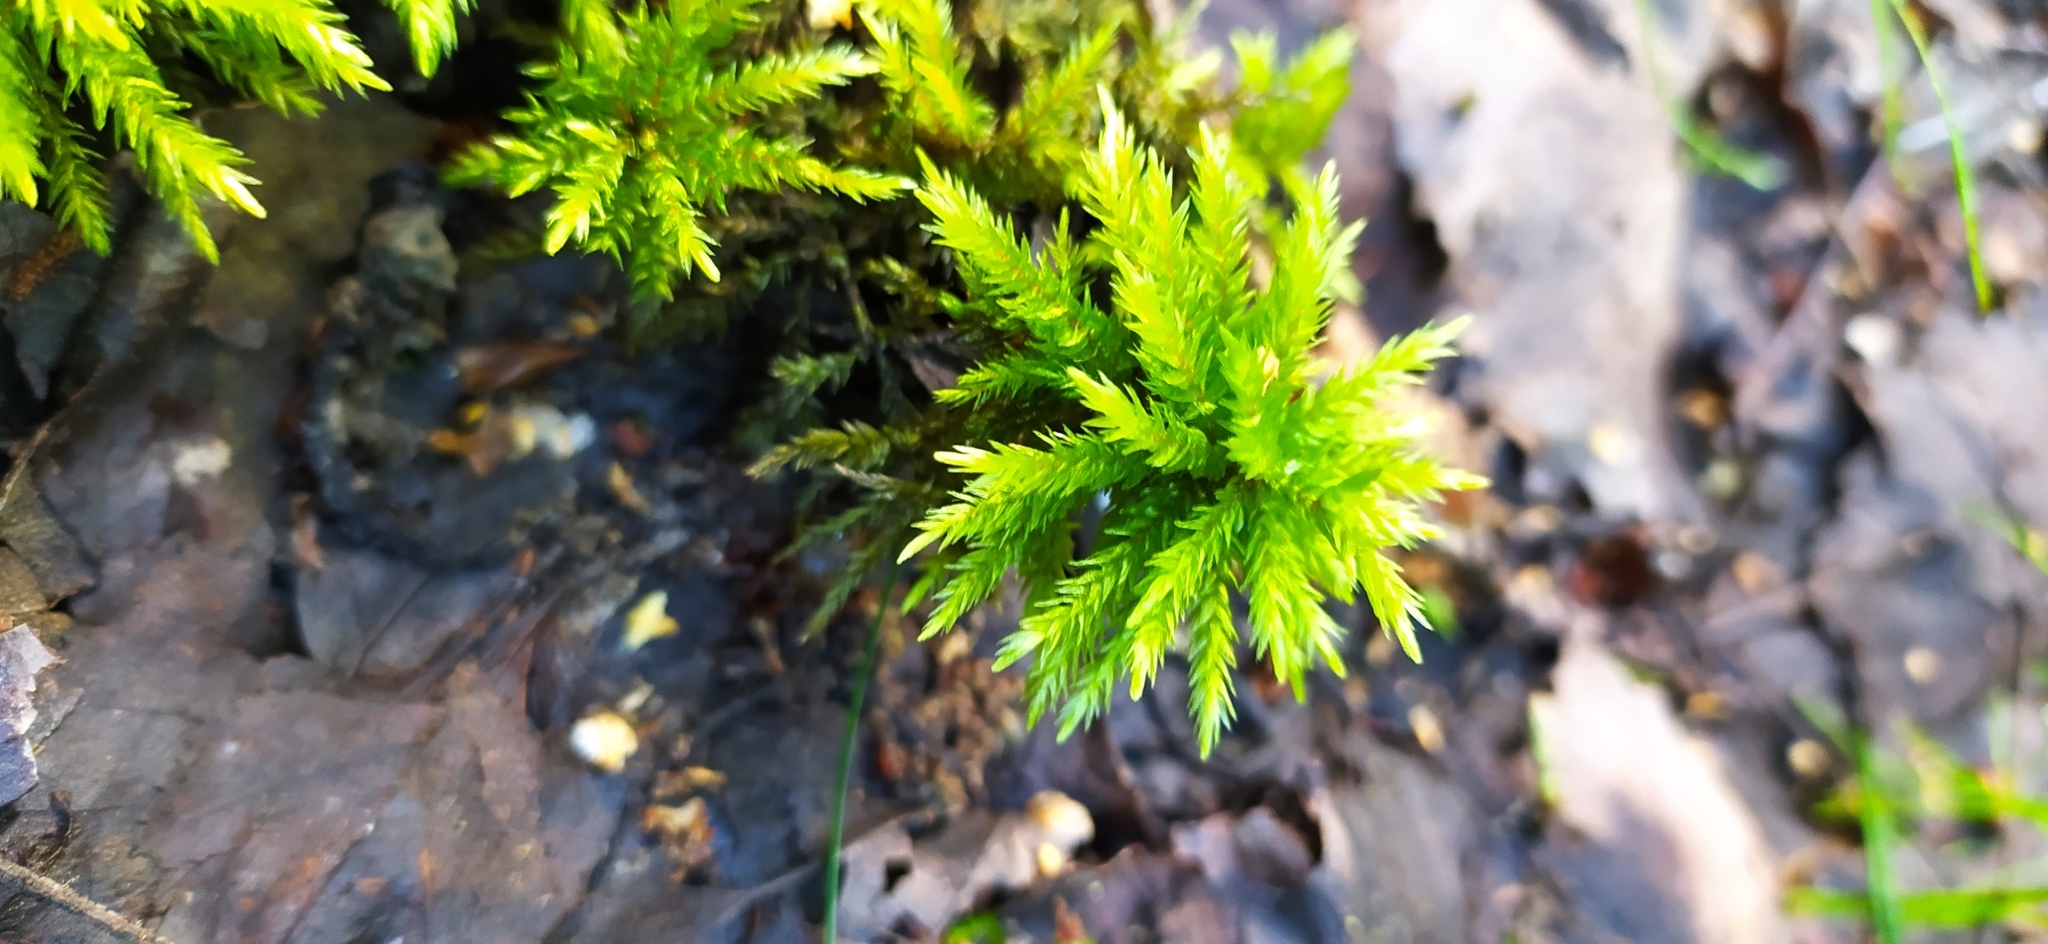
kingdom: Plantae
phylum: Bryophyta
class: Bryopsida
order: Hypnales
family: Climaciaceae
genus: Climacium
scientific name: Climacium dendroides
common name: Northern tree moss
